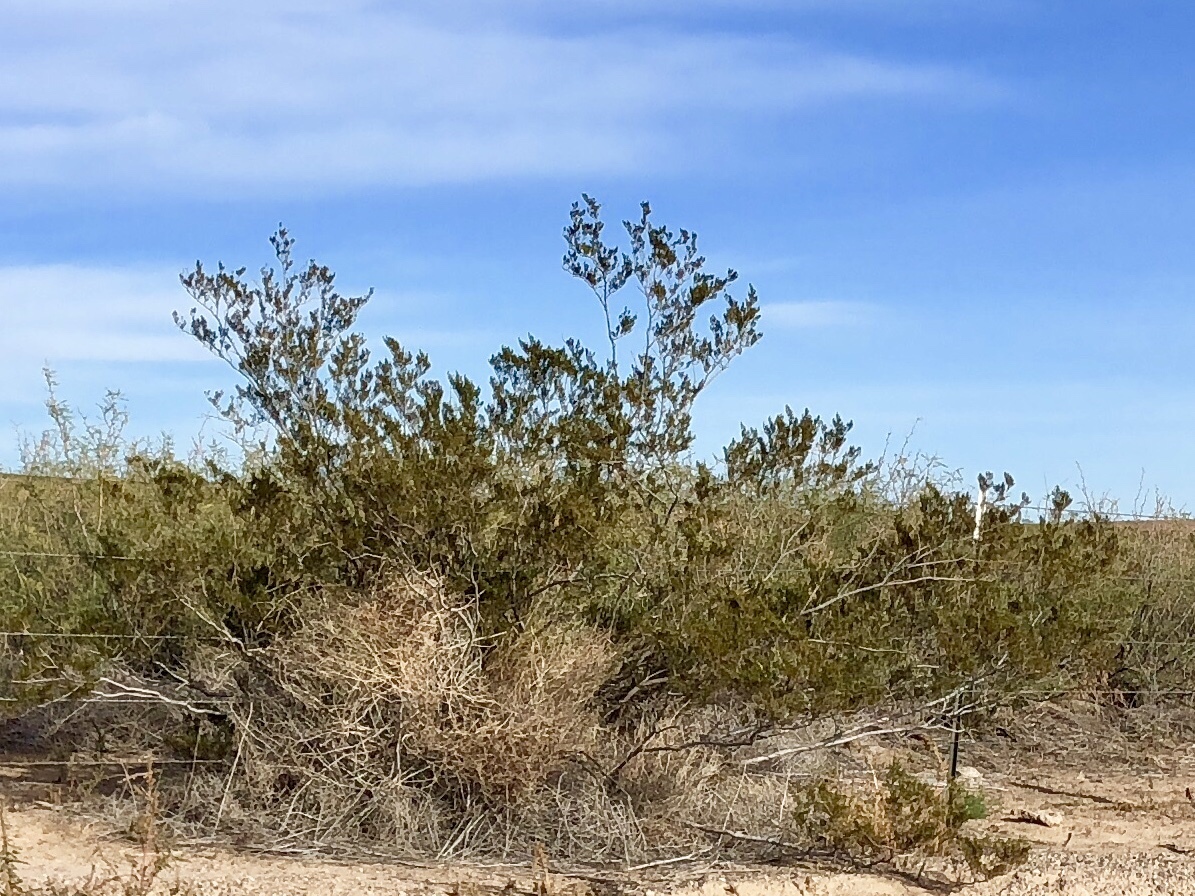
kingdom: Plantae
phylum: Tracheophyta
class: Magnoliopsida
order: Zygophyllales
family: Zygophyllaceae
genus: Larrea
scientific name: Larrea tridentata
